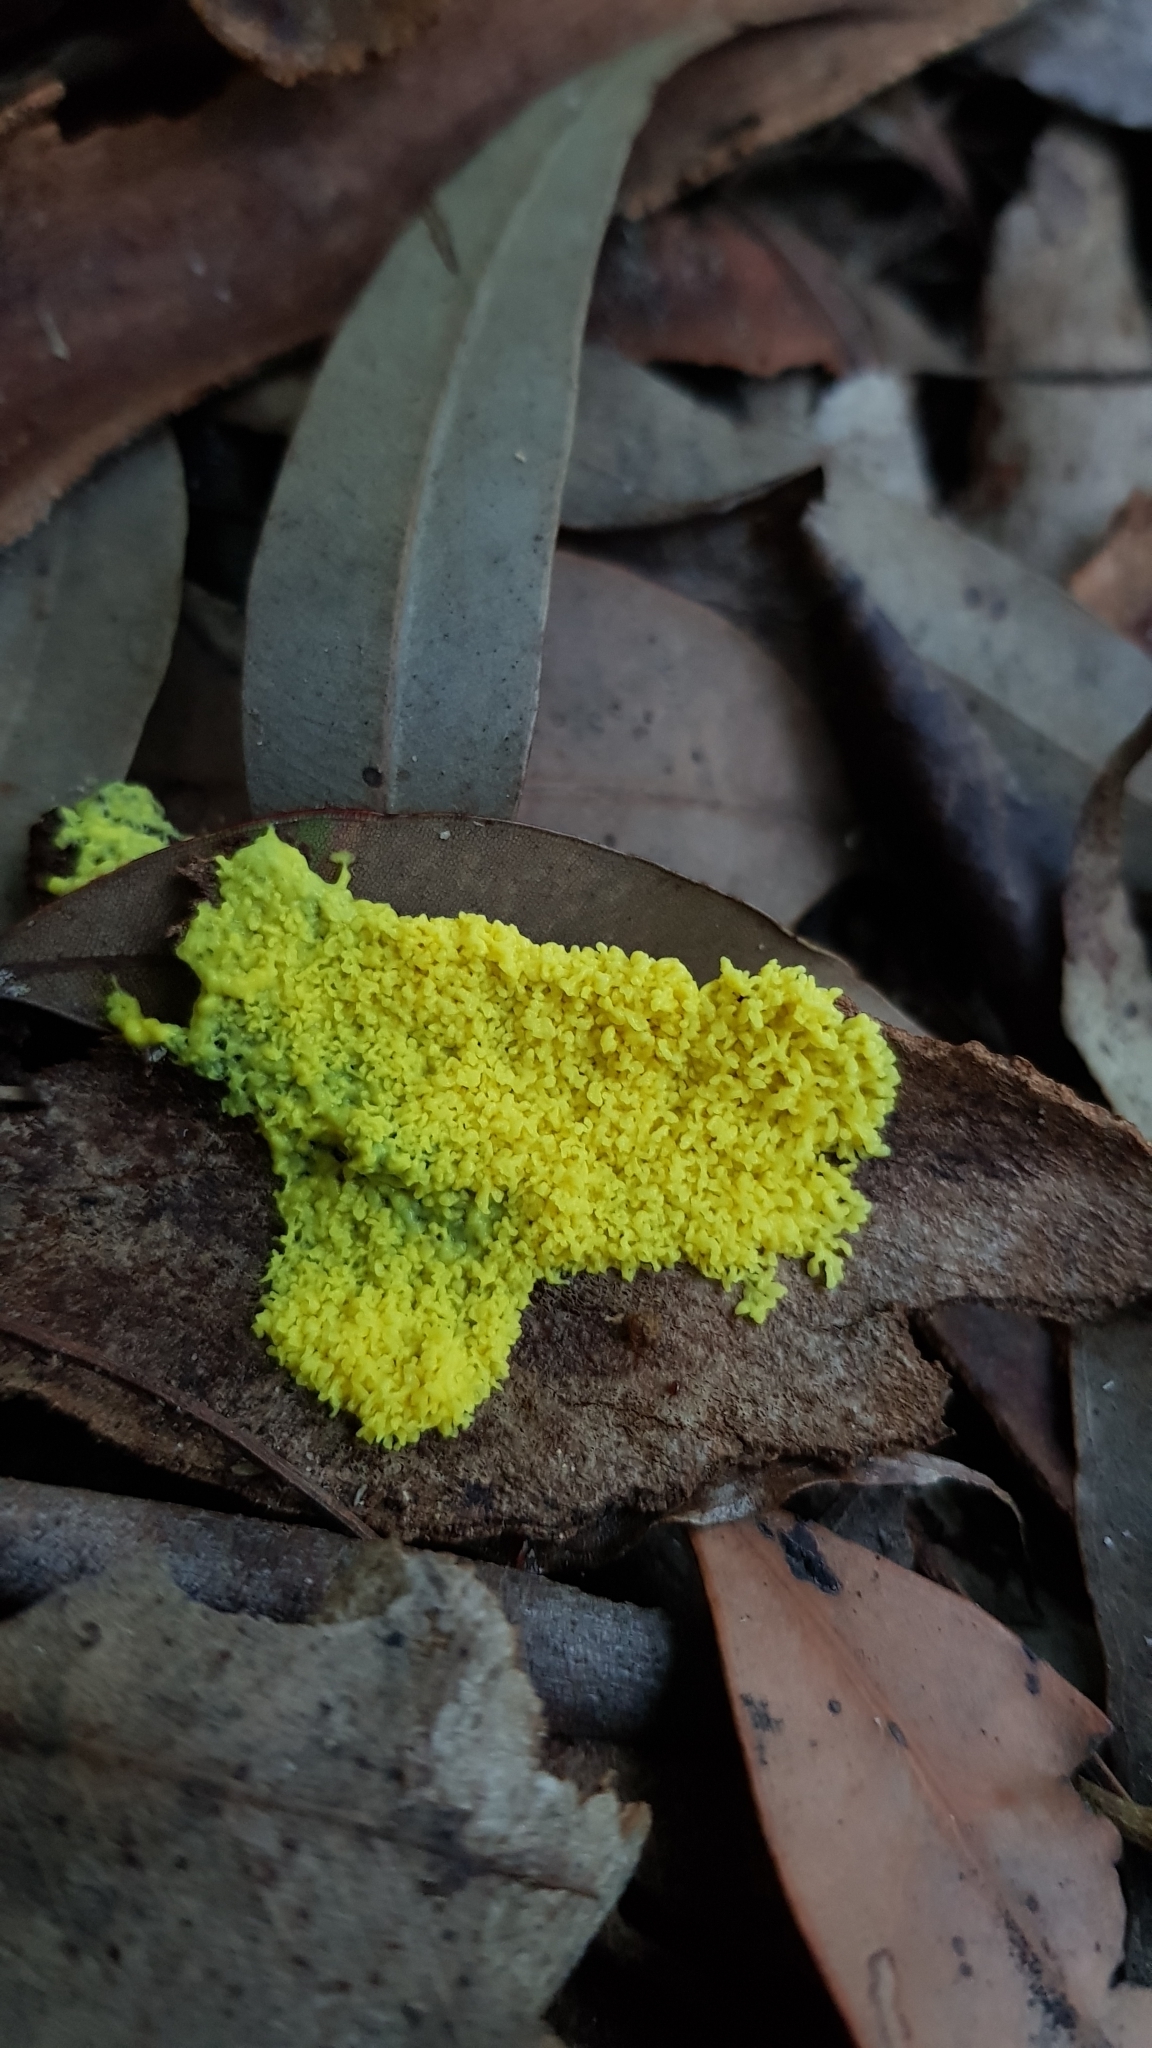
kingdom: Protozoa
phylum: Mycetozoa
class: Myxomycetes
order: Physarales
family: Physaraceae
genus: Fuligo
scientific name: Fuligo septica
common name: Dog vomit slime mold
